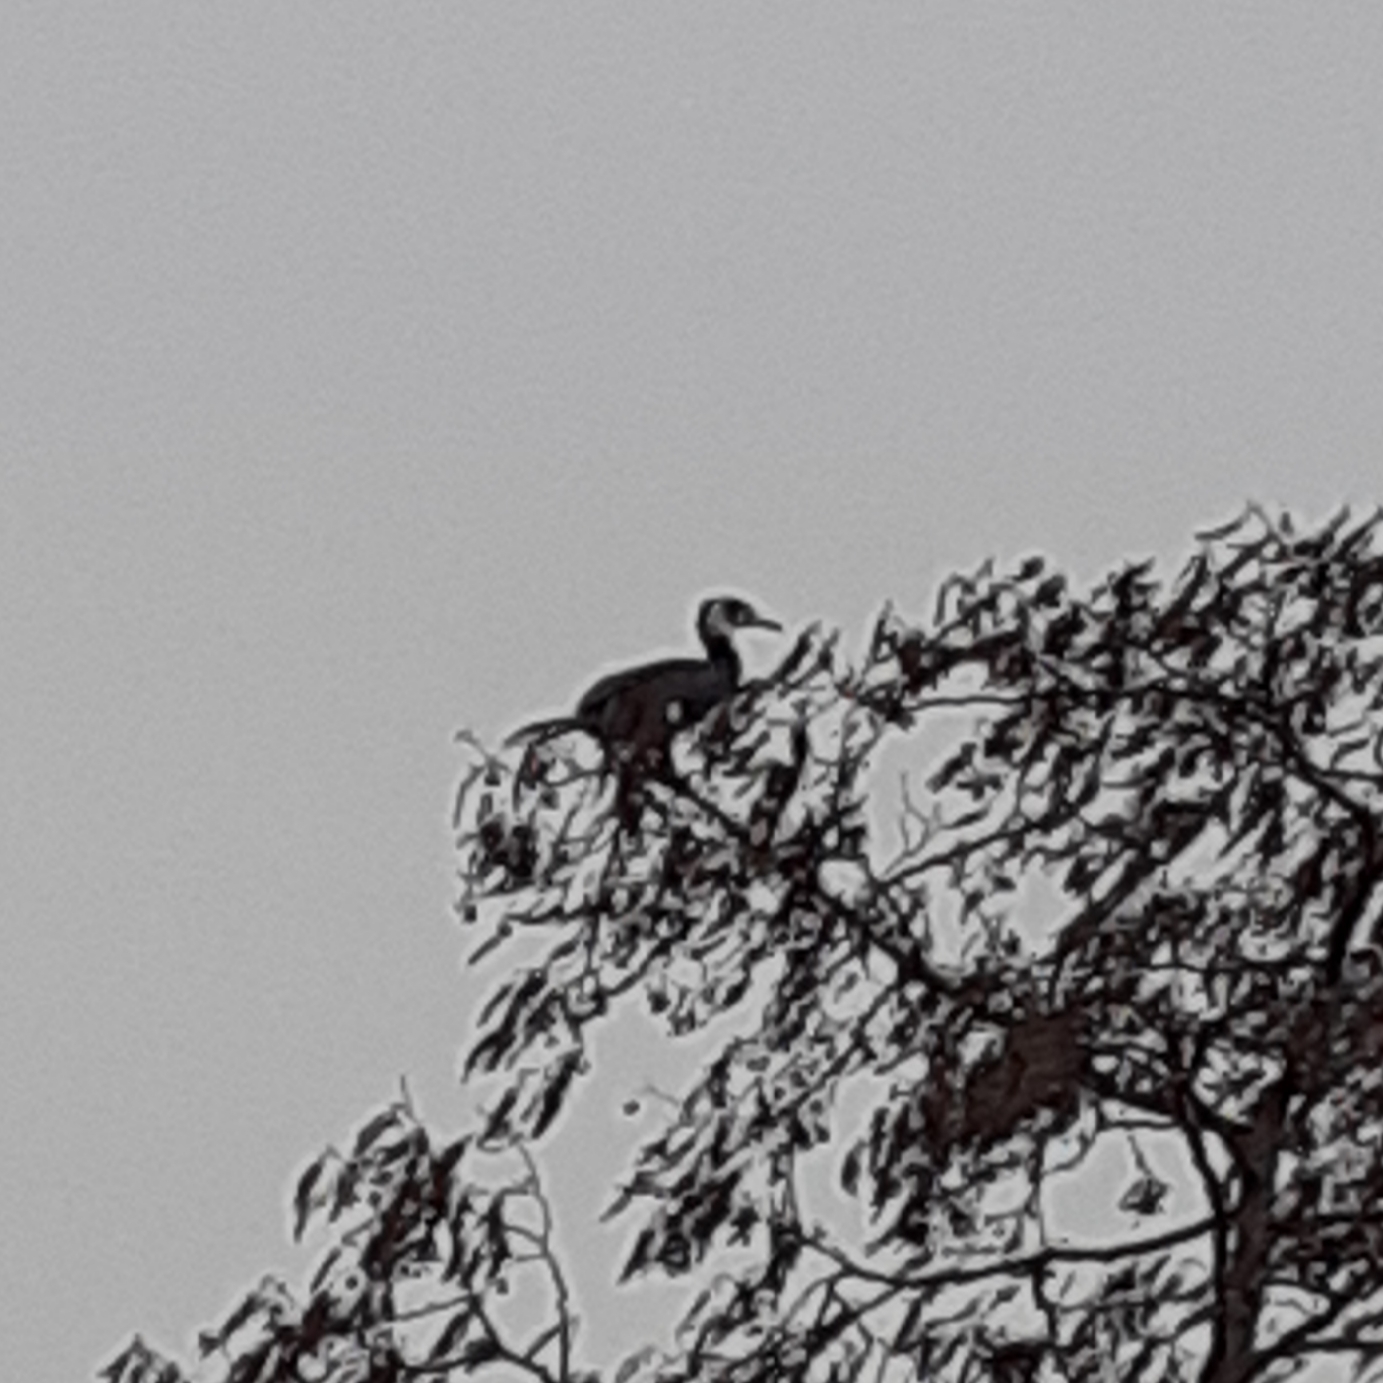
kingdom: Animalia
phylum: Chordata
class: Aves
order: Suliformes
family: Phalacrocoracidae
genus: Phalacrocorax
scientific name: Phalacrocorax carbo
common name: Great cormorant
